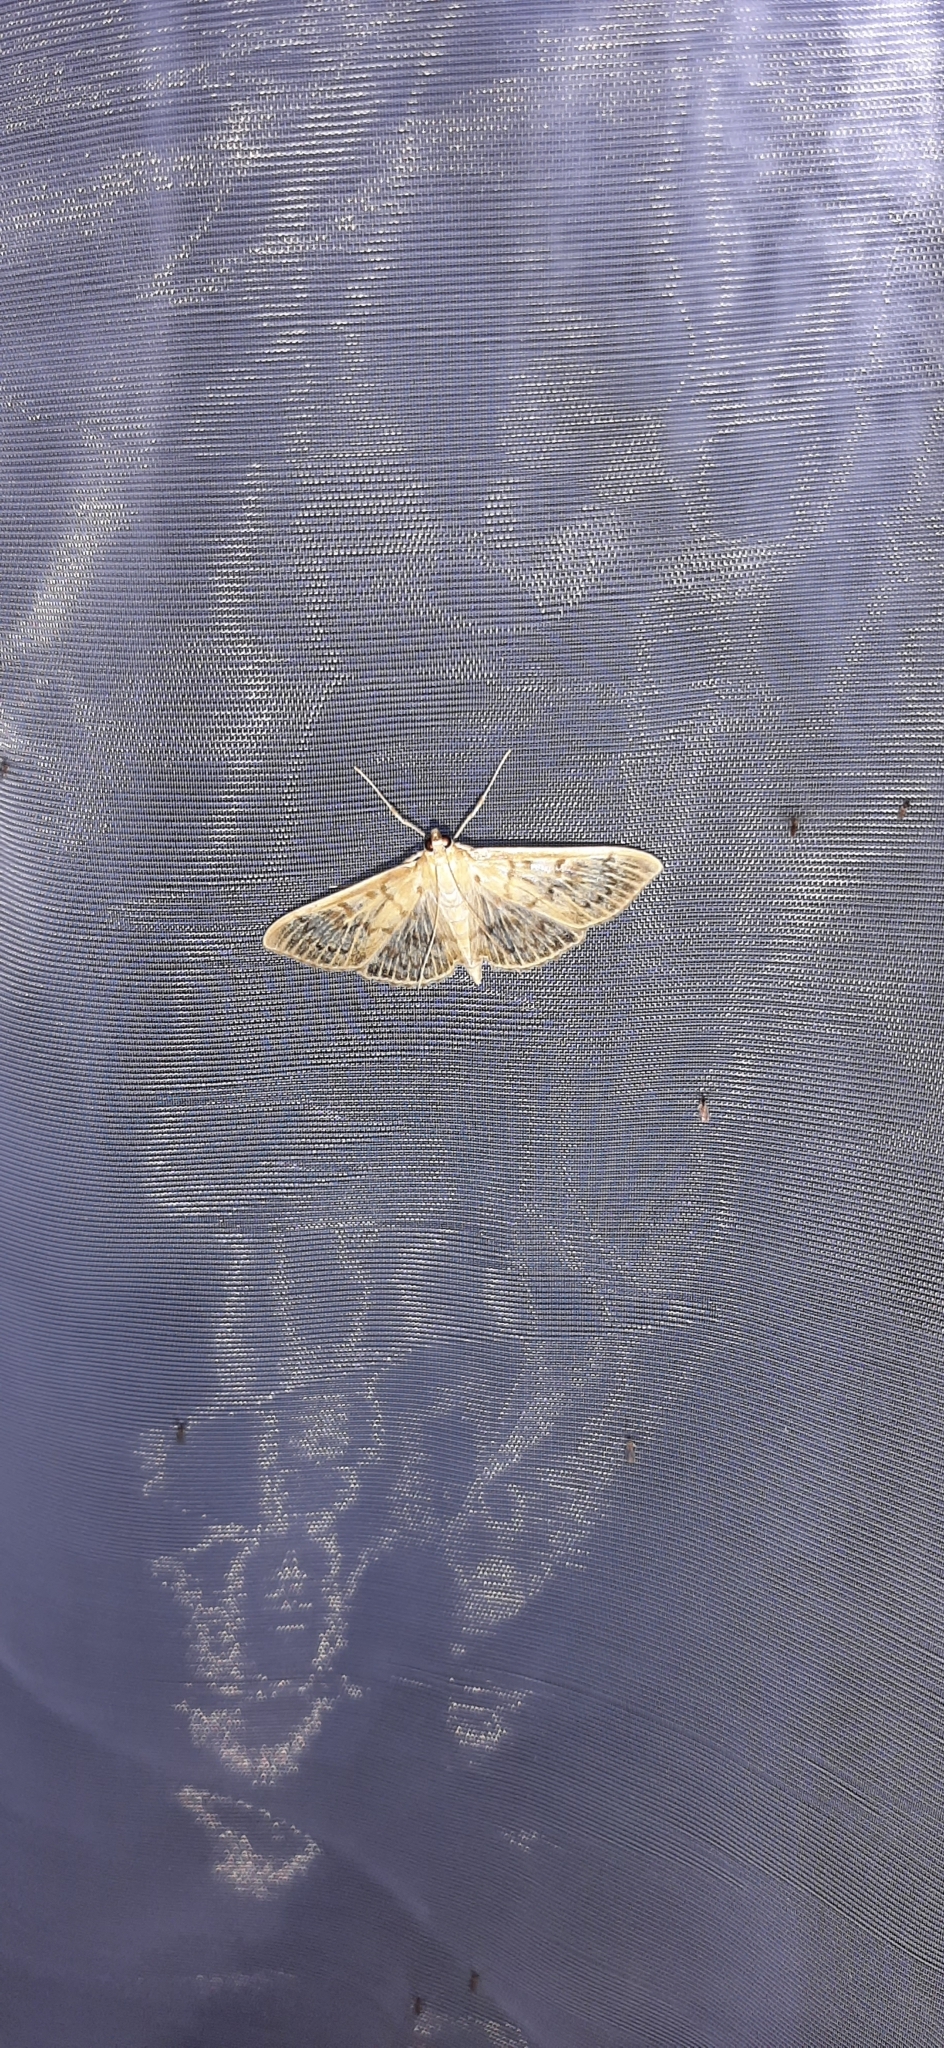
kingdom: Animalia
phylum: Arthropoda
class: Insecta
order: Lepidoptera
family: Crambidae
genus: Patania
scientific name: Patania ruralis
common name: Mother of pearl
